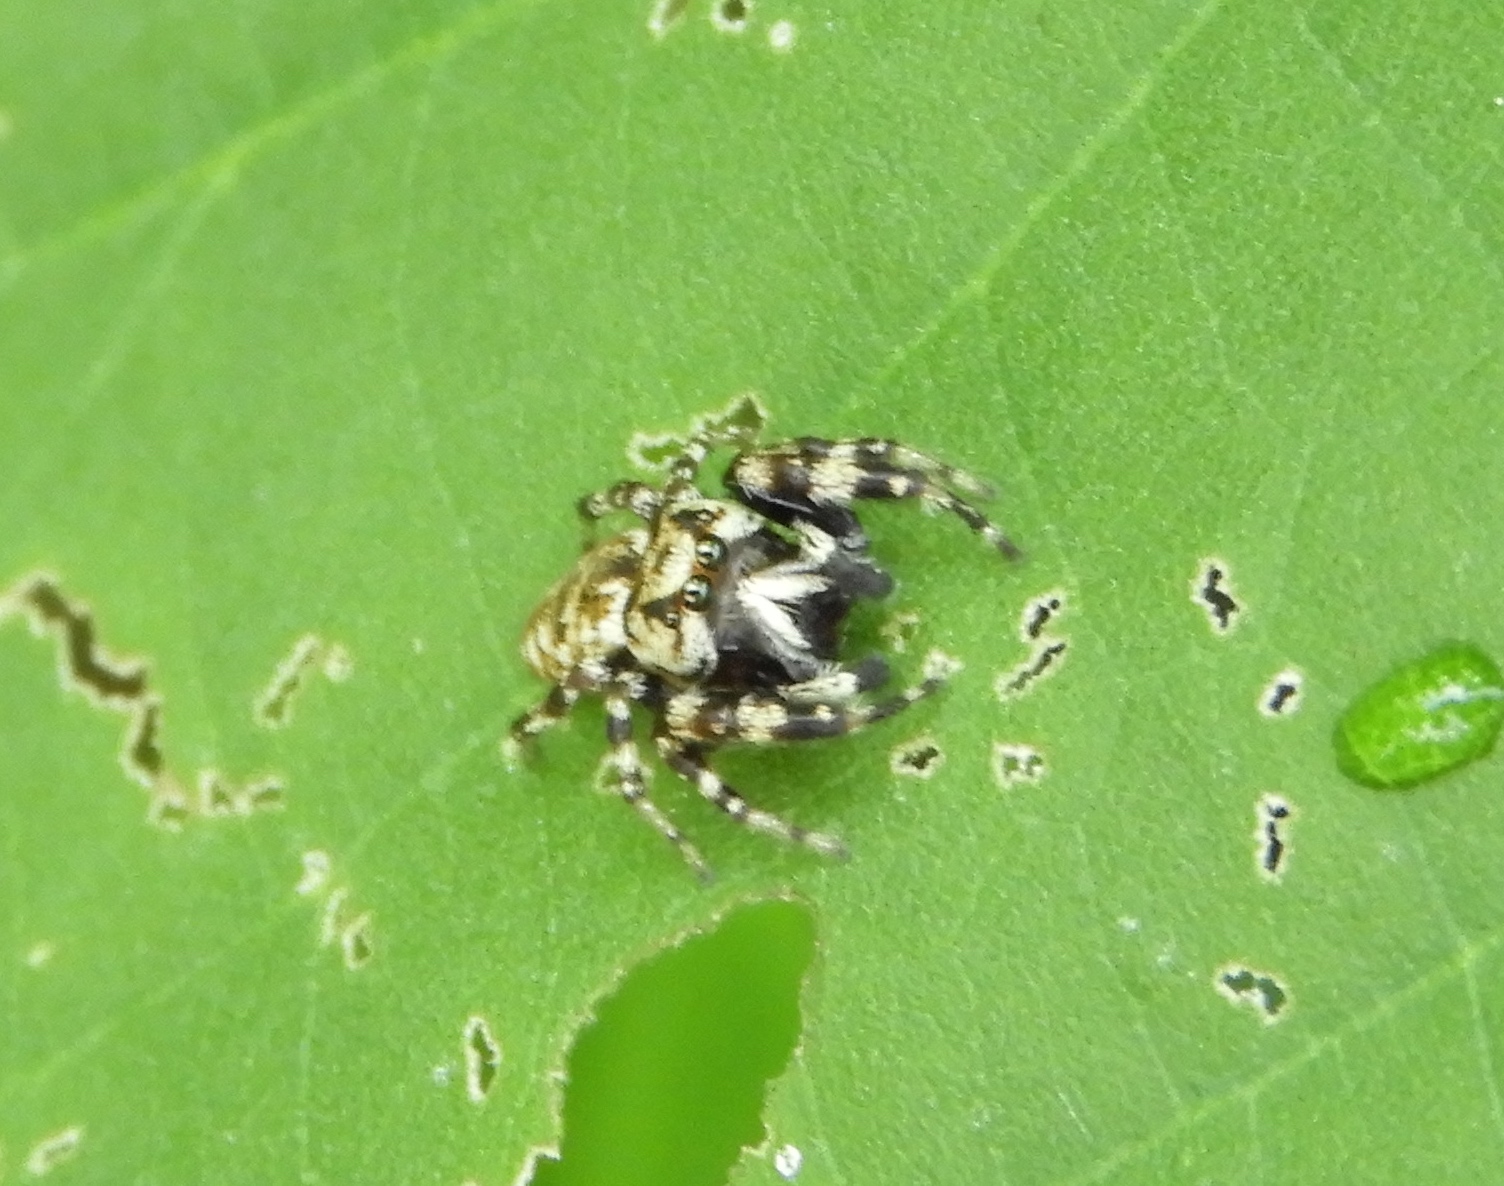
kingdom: Animalia
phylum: Arthropoda
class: Arachnida
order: Araneae
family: Salticidae
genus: Pelegrina
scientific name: Pelegrina variegata
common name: Jumping spiders
